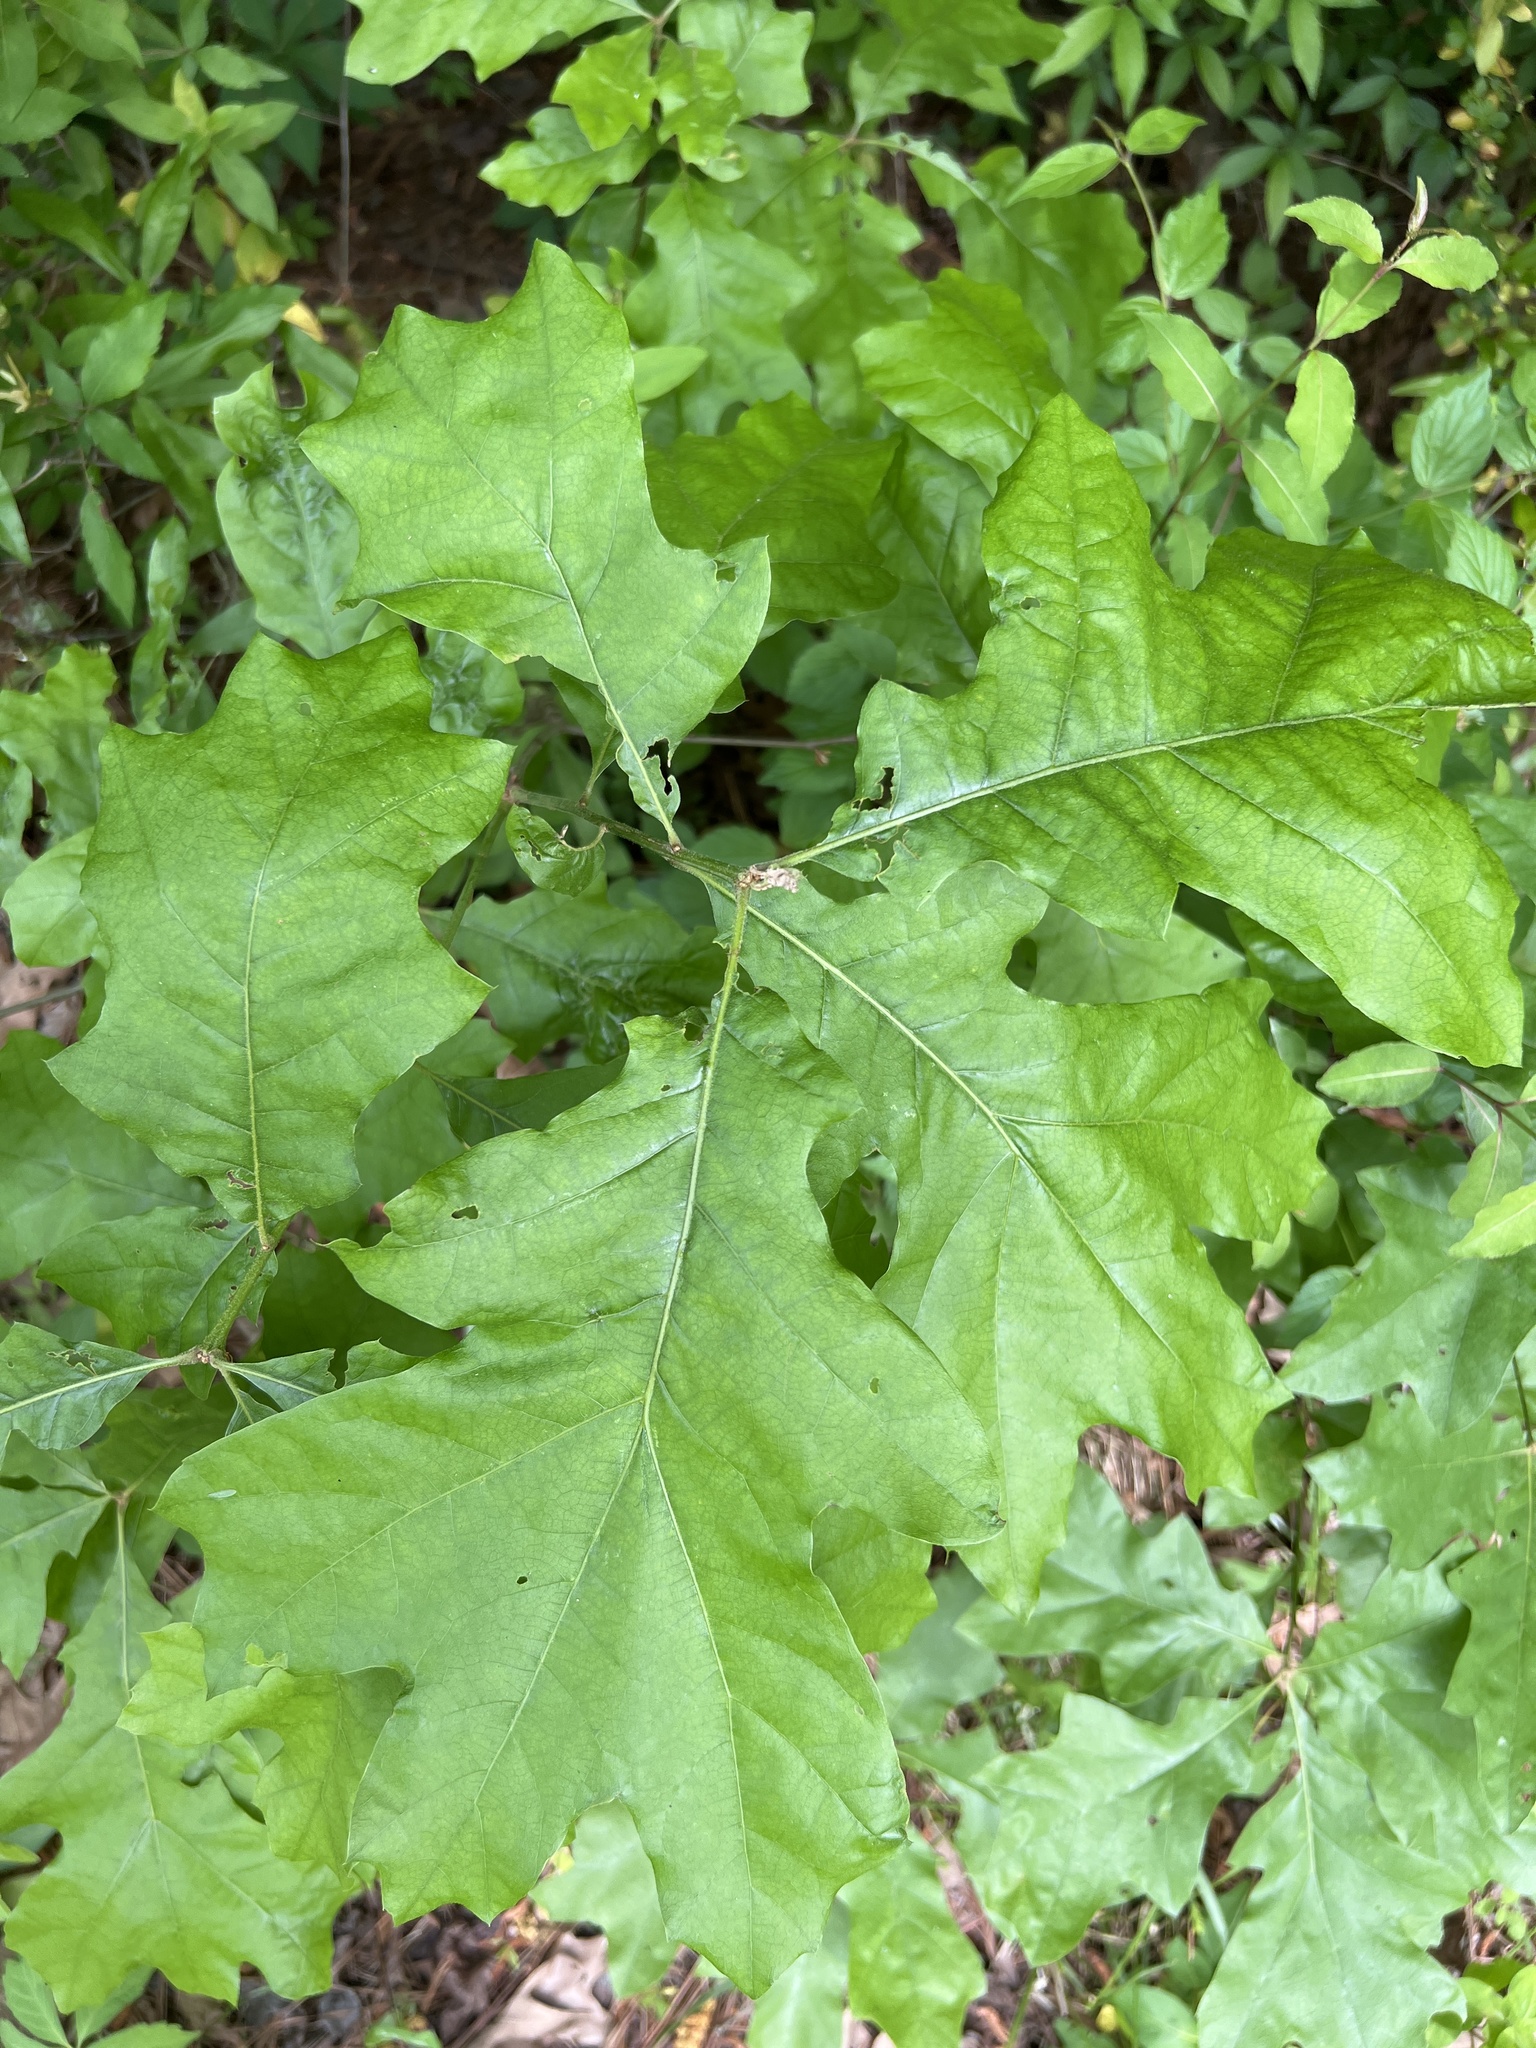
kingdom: Plantae
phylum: Tracheophyta
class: Magnoliopsida
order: Fagales
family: Fagaceae
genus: Quercus
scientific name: Quercus velutina
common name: Black oak
